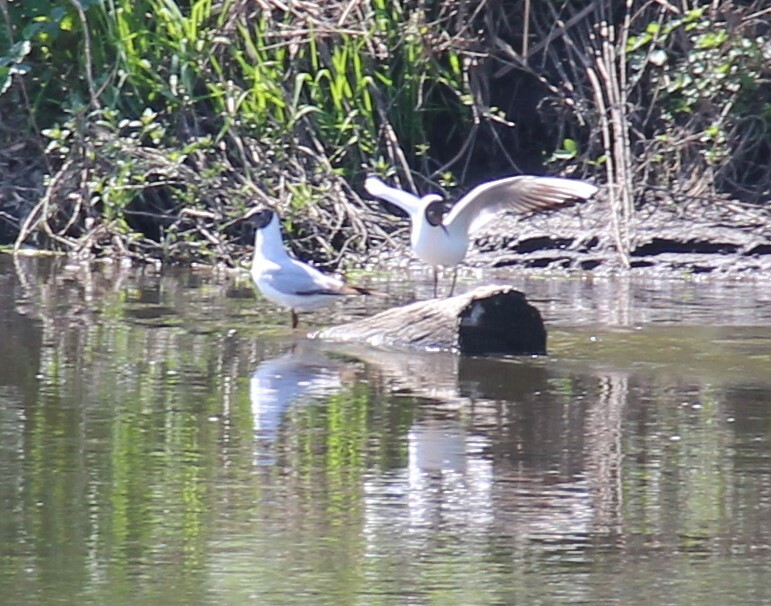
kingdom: Animalia
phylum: Chordata
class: Aves
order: Charadriiformes
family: Laridae
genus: Chroicocephalus
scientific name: Chroicocephalus ridibundus
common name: Black-headed gull
